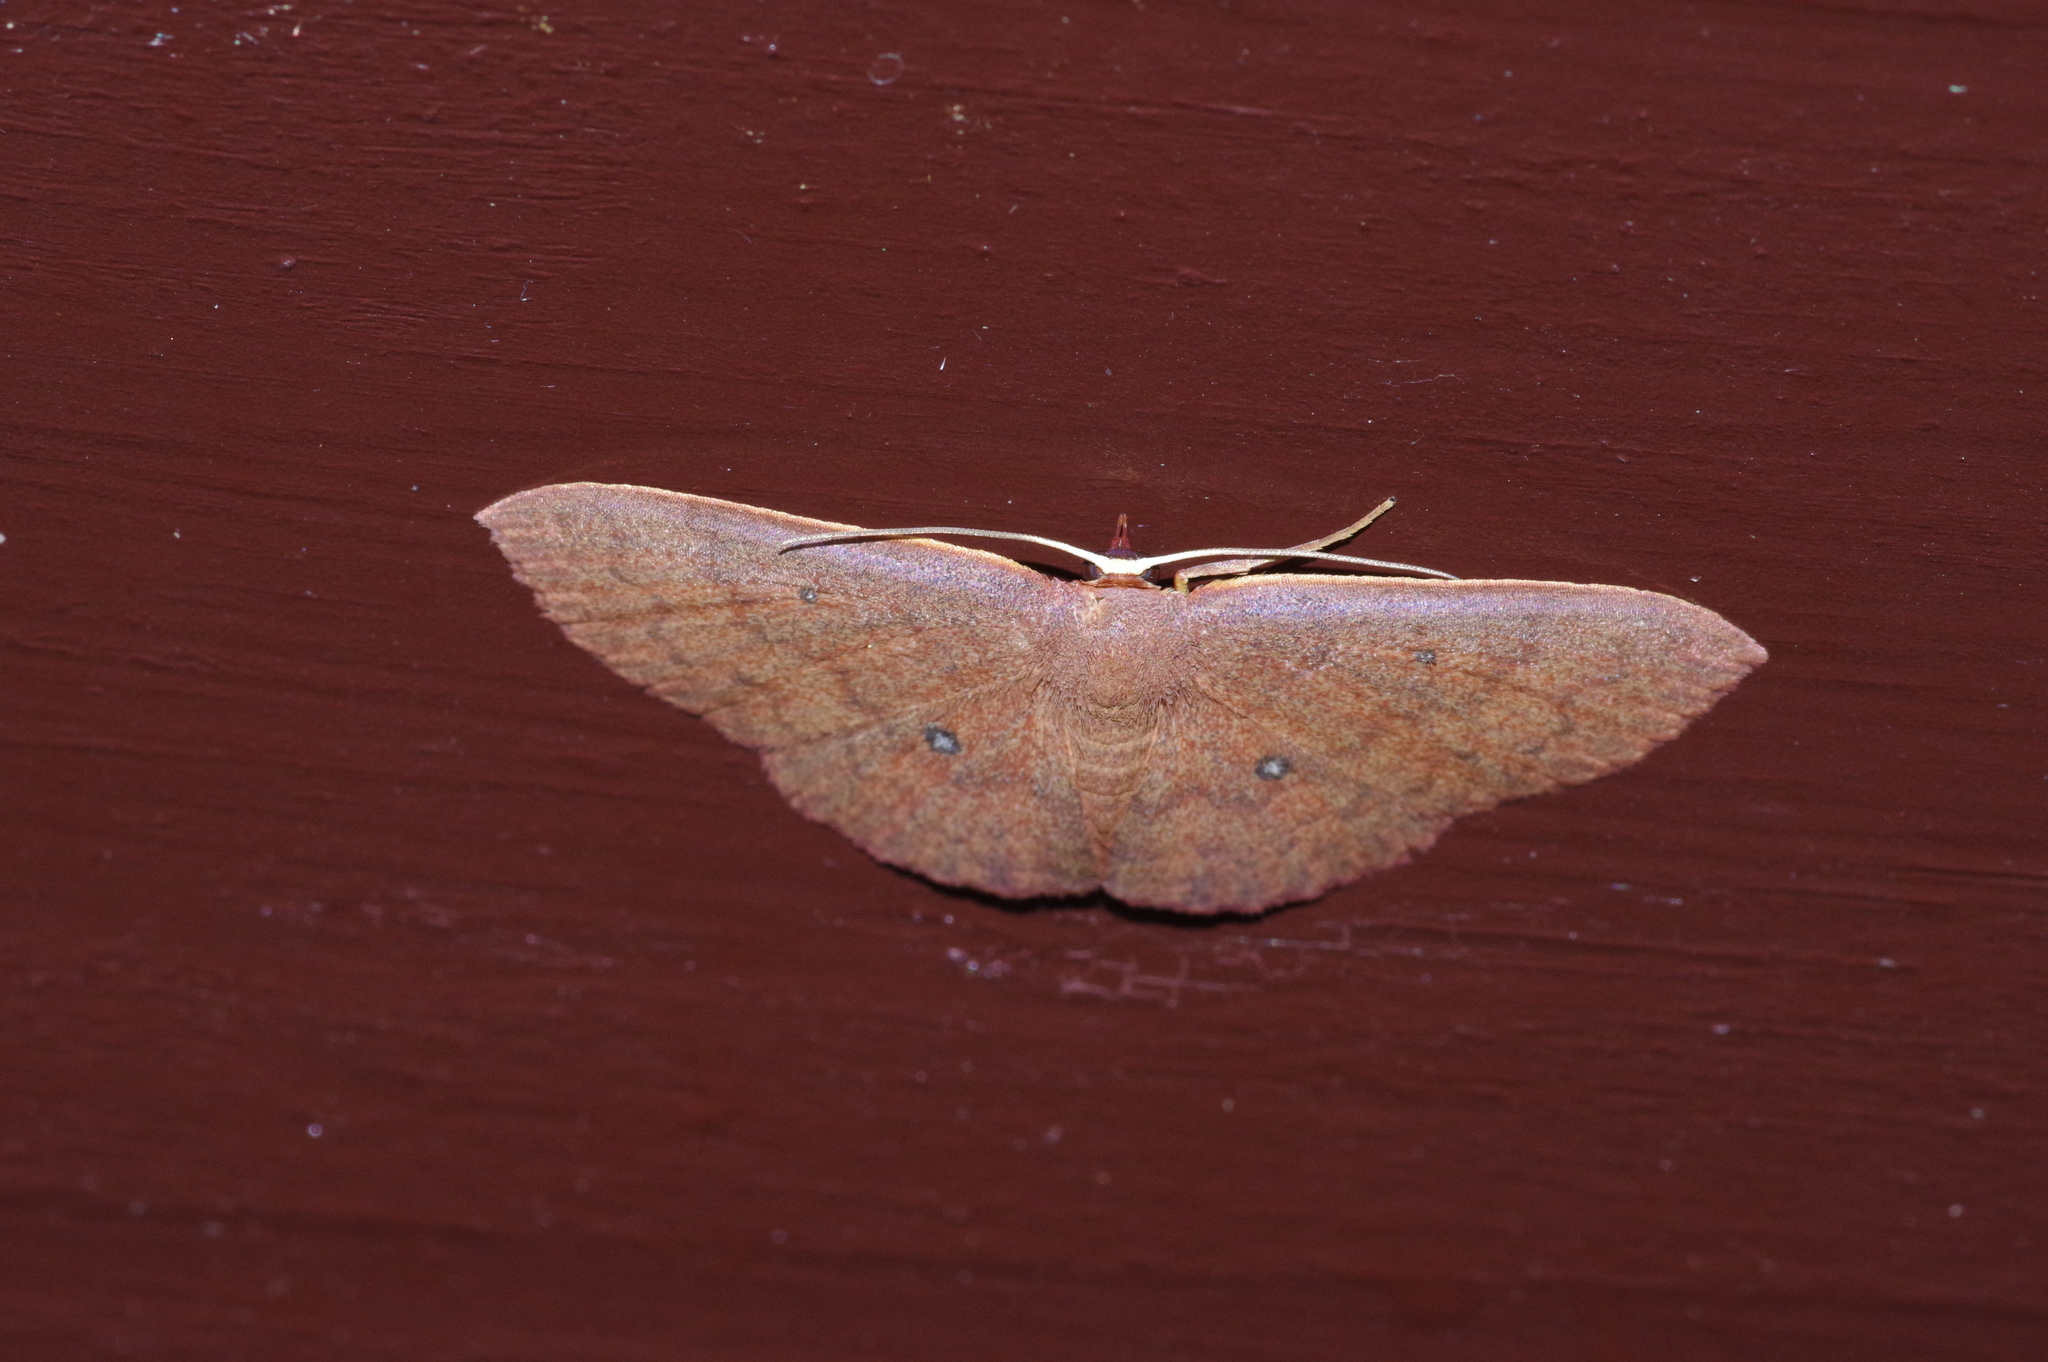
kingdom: Animalia
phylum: Arthropoda
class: Insecta
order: Lepidoptera
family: Geometridae
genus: Organopoda
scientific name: Organopoda carnearia
